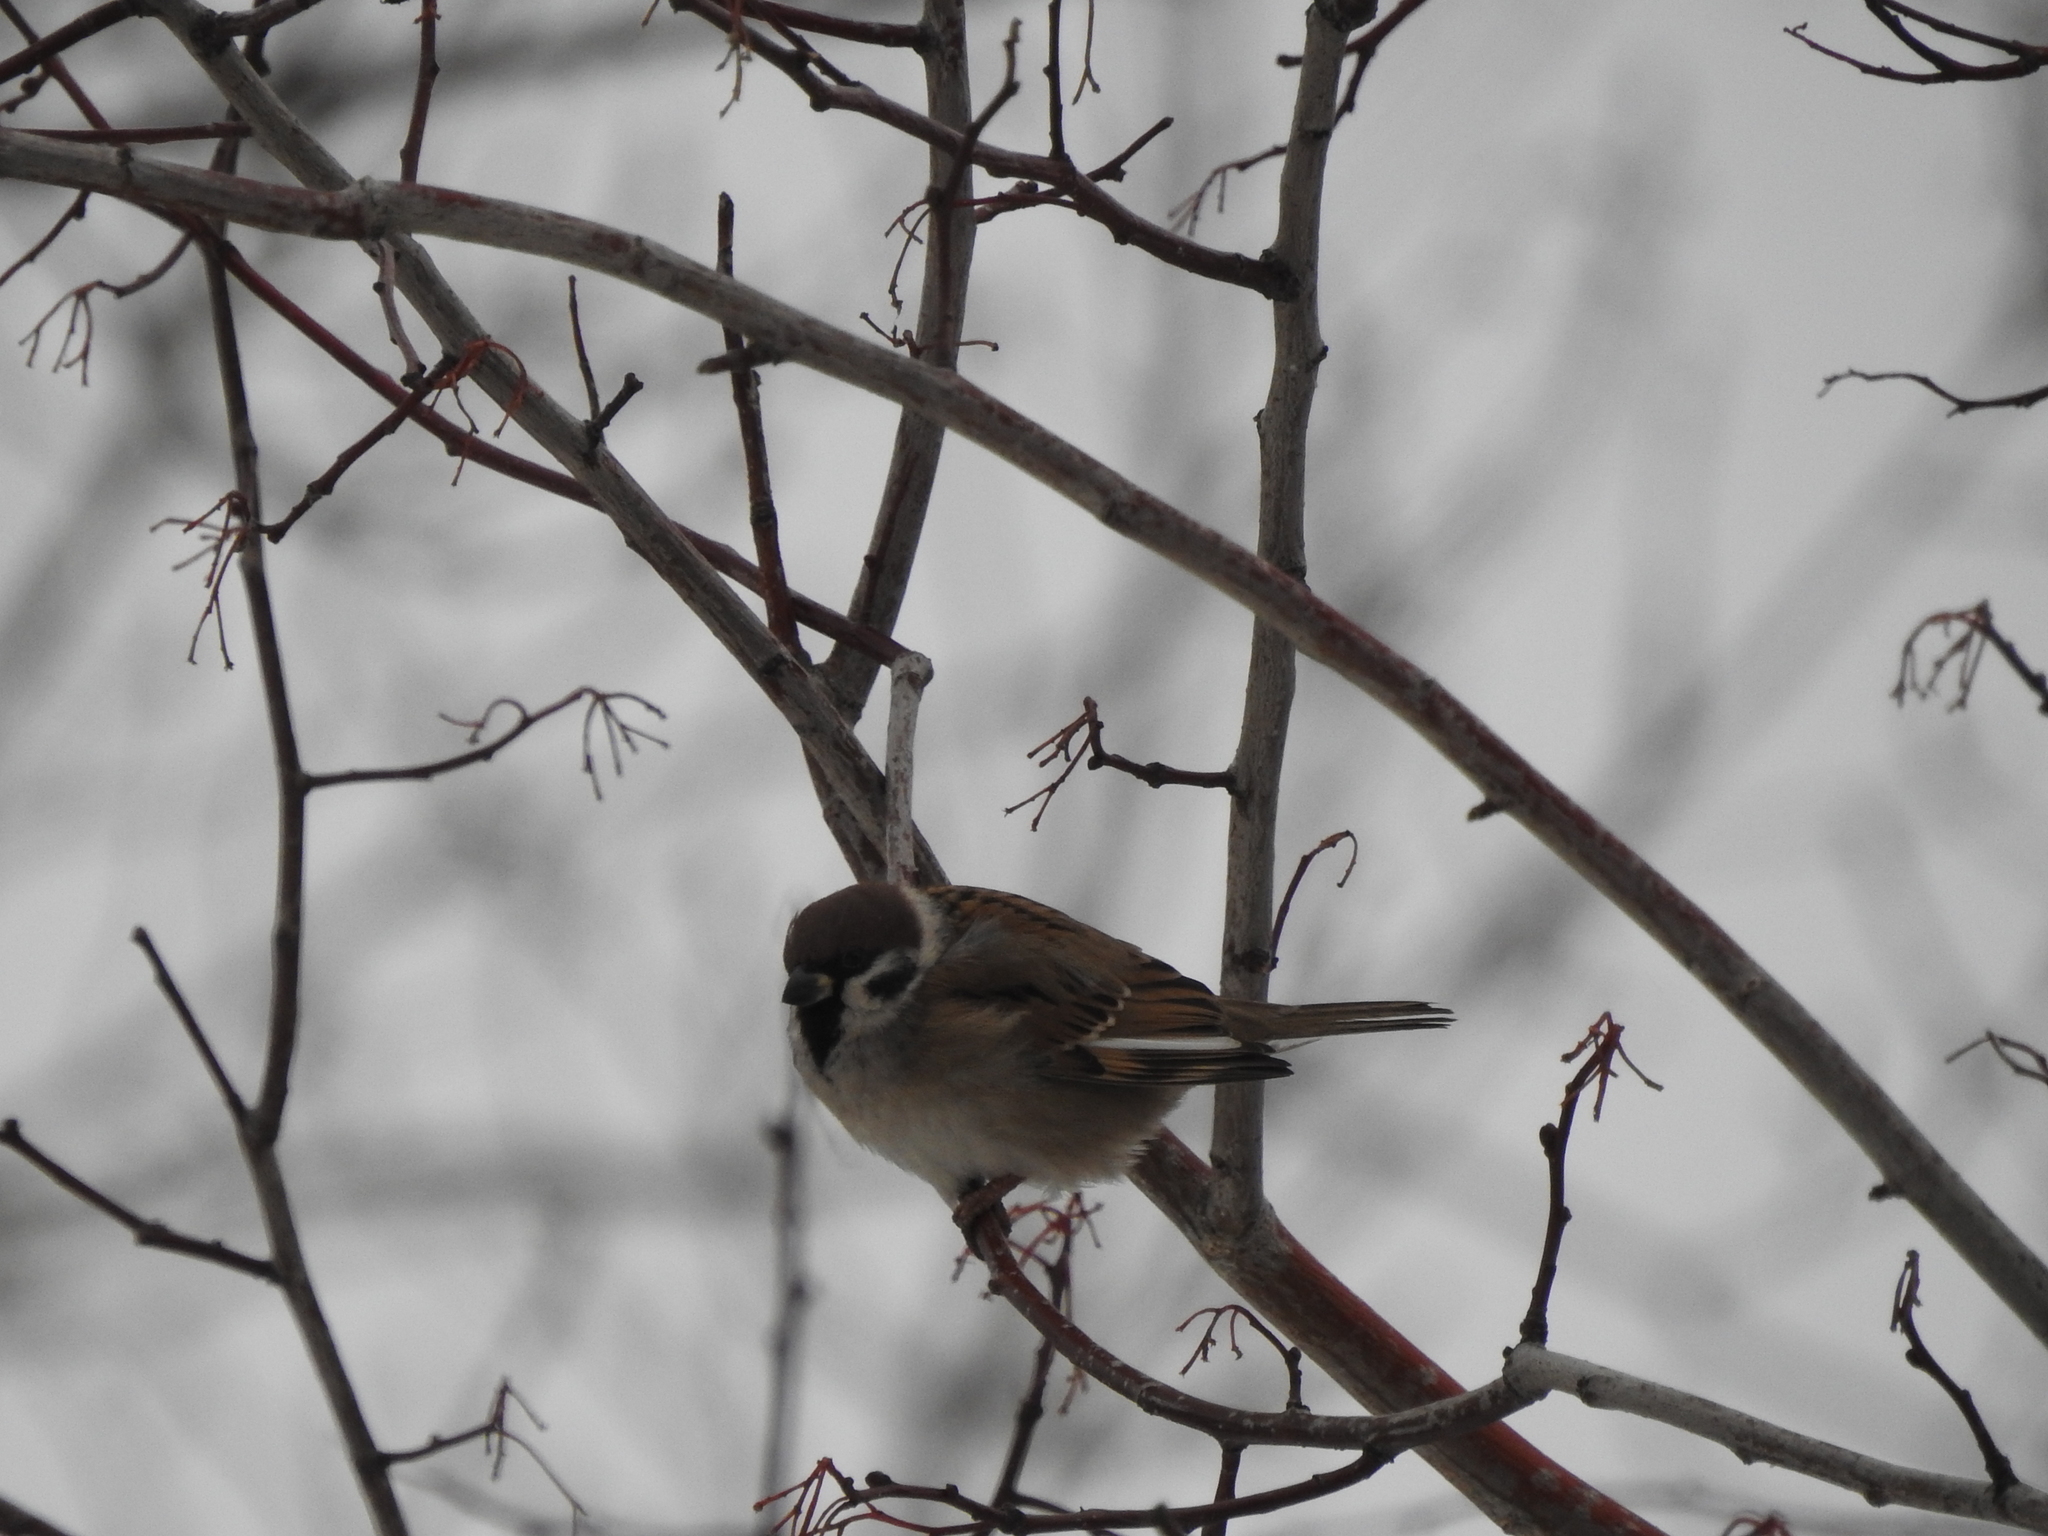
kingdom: Animalia
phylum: Chordata
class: Aves
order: Passeriformes
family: Passeridae
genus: Passer
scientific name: Passer montanus
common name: Eurasian tree sparrow
